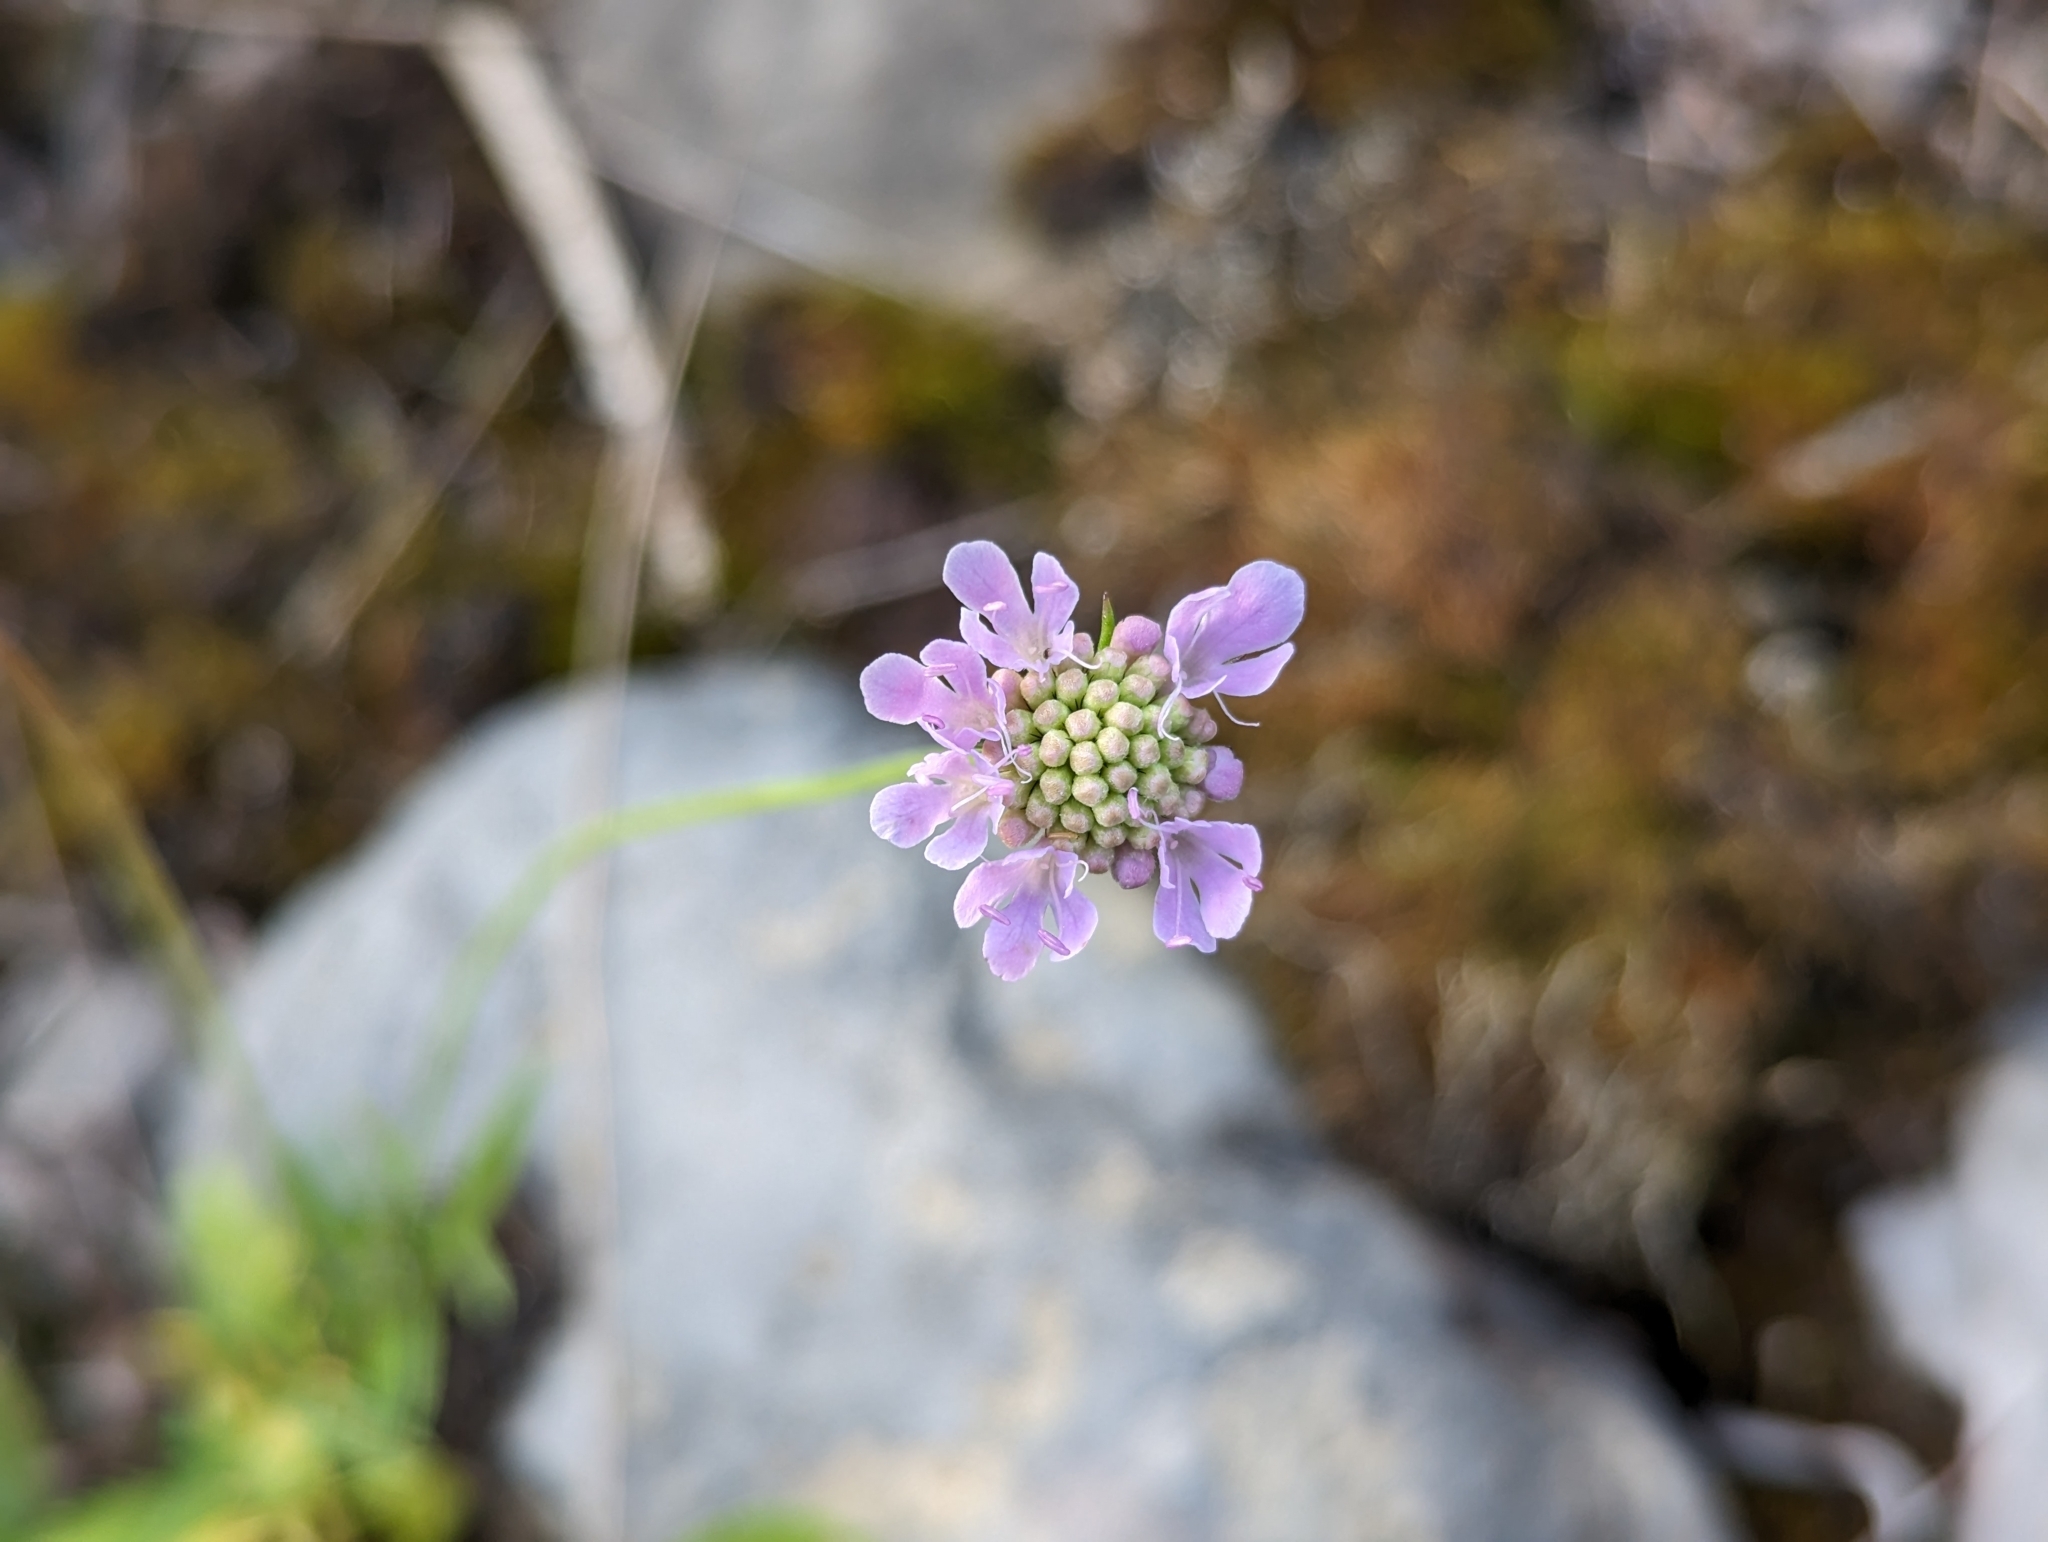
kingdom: Plantae
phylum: Tracheophyta
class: Magnoliopsida
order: Dipsacales
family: Caprifoliaceae
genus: Scabiosa
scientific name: Scabiosa lucida
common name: Shining scabious
